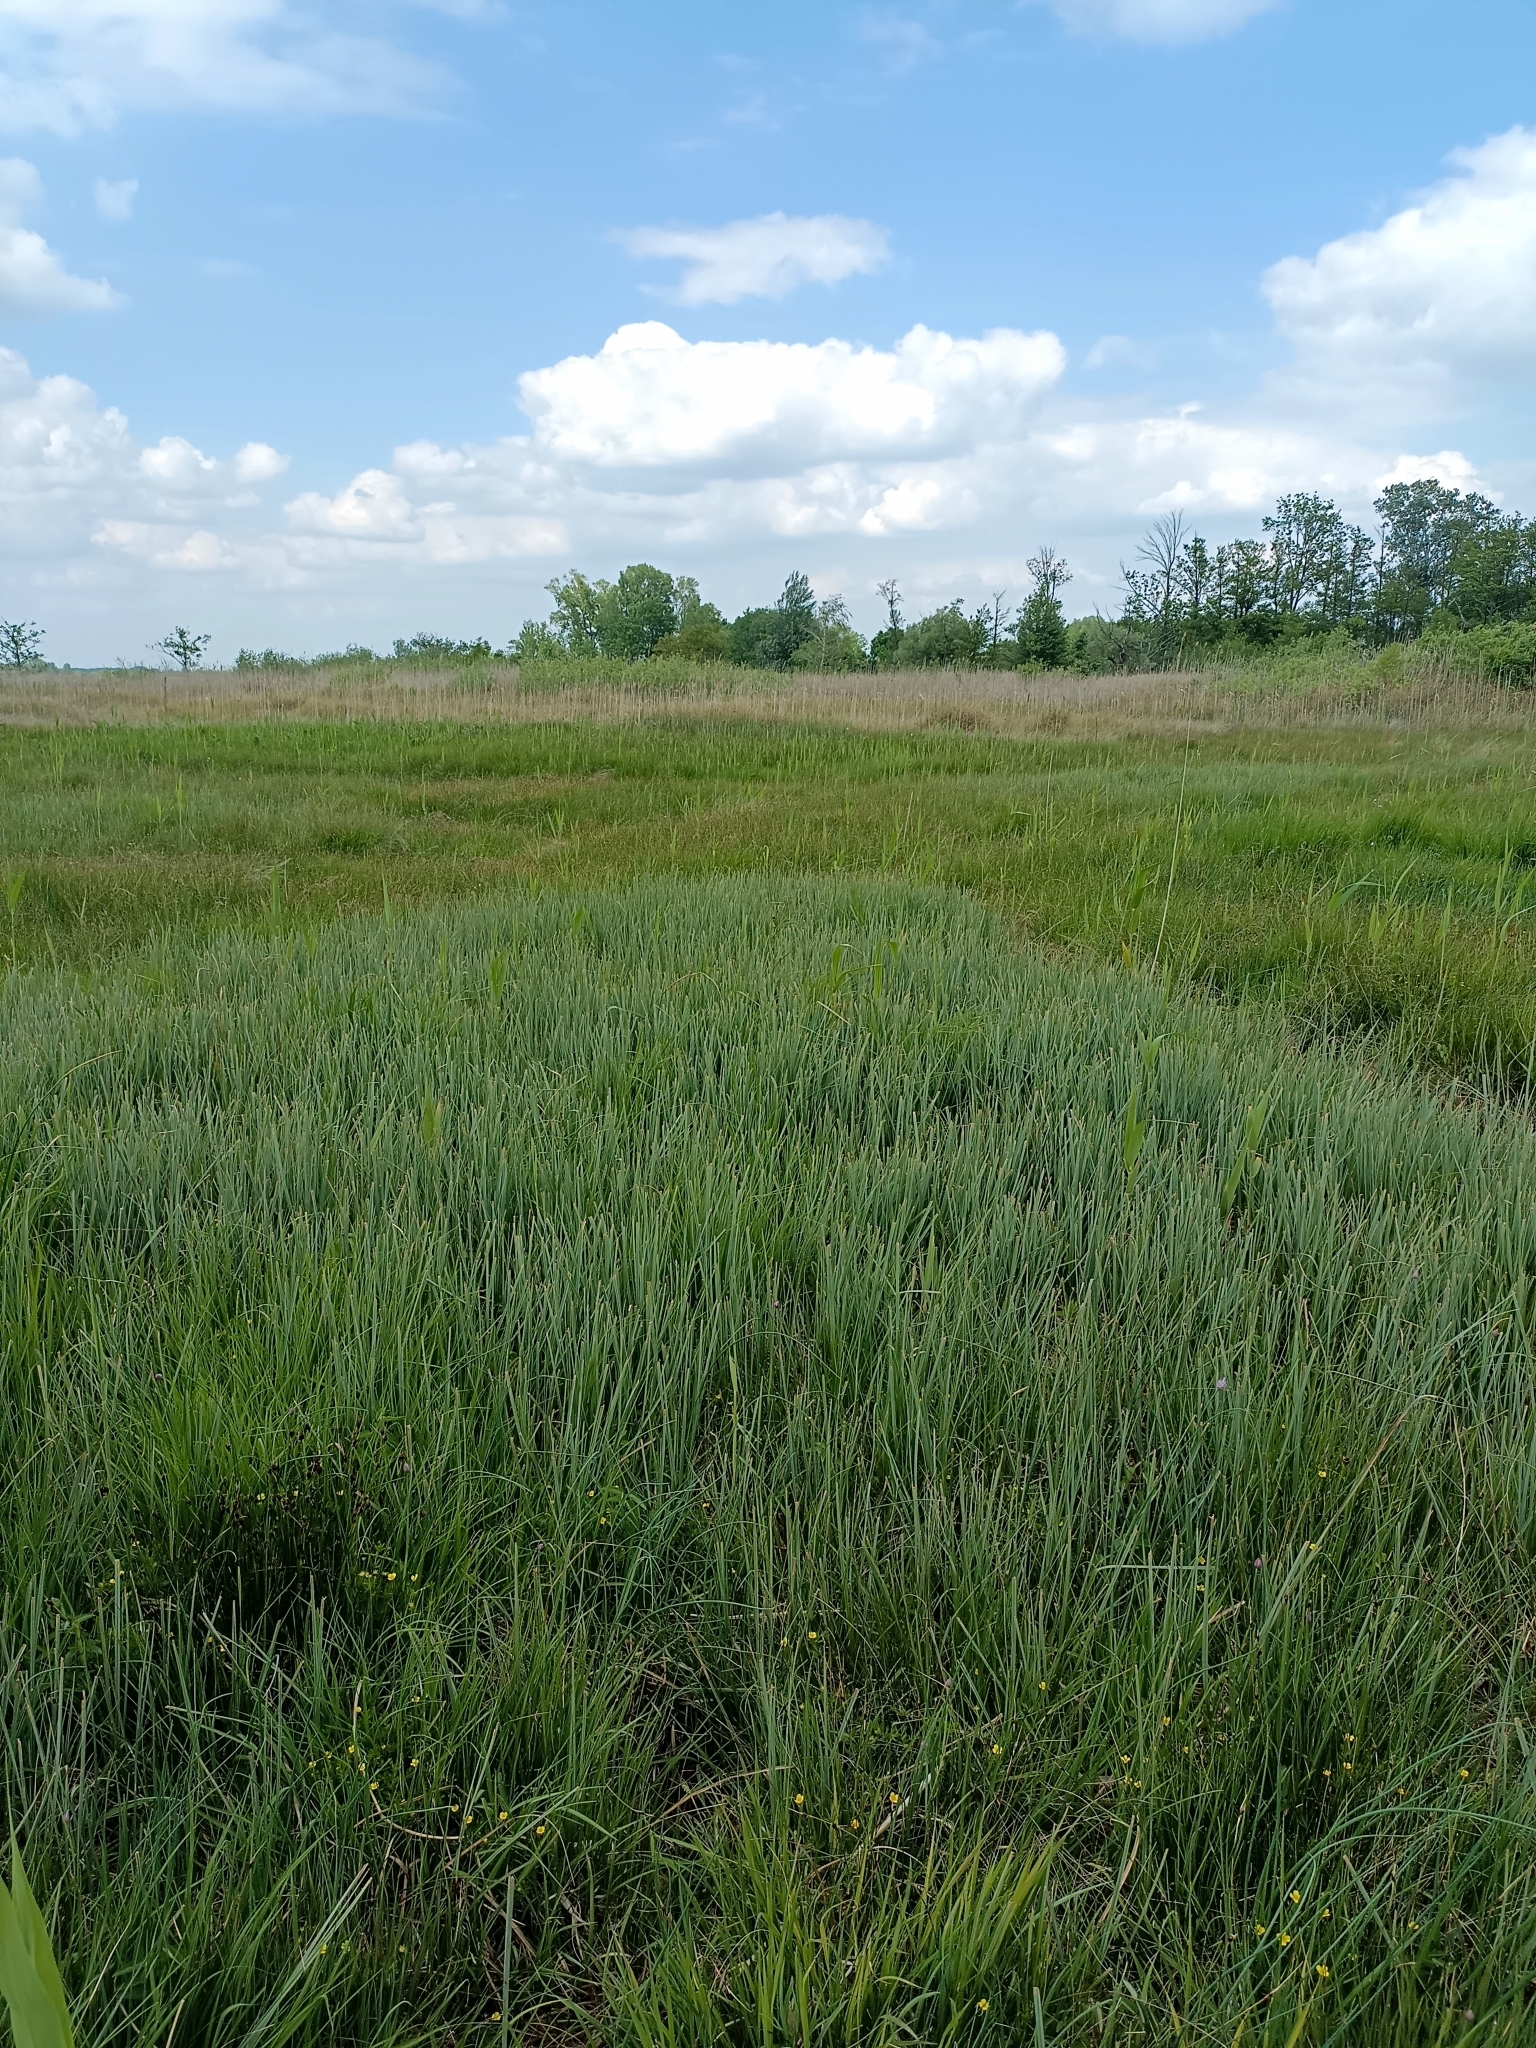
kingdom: Plantae
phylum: Tracheophyta
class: Liliopsida
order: Poales
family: Cyperaceae
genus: Cladium
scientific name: Cladium mariscus
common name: Great fen-sedge
